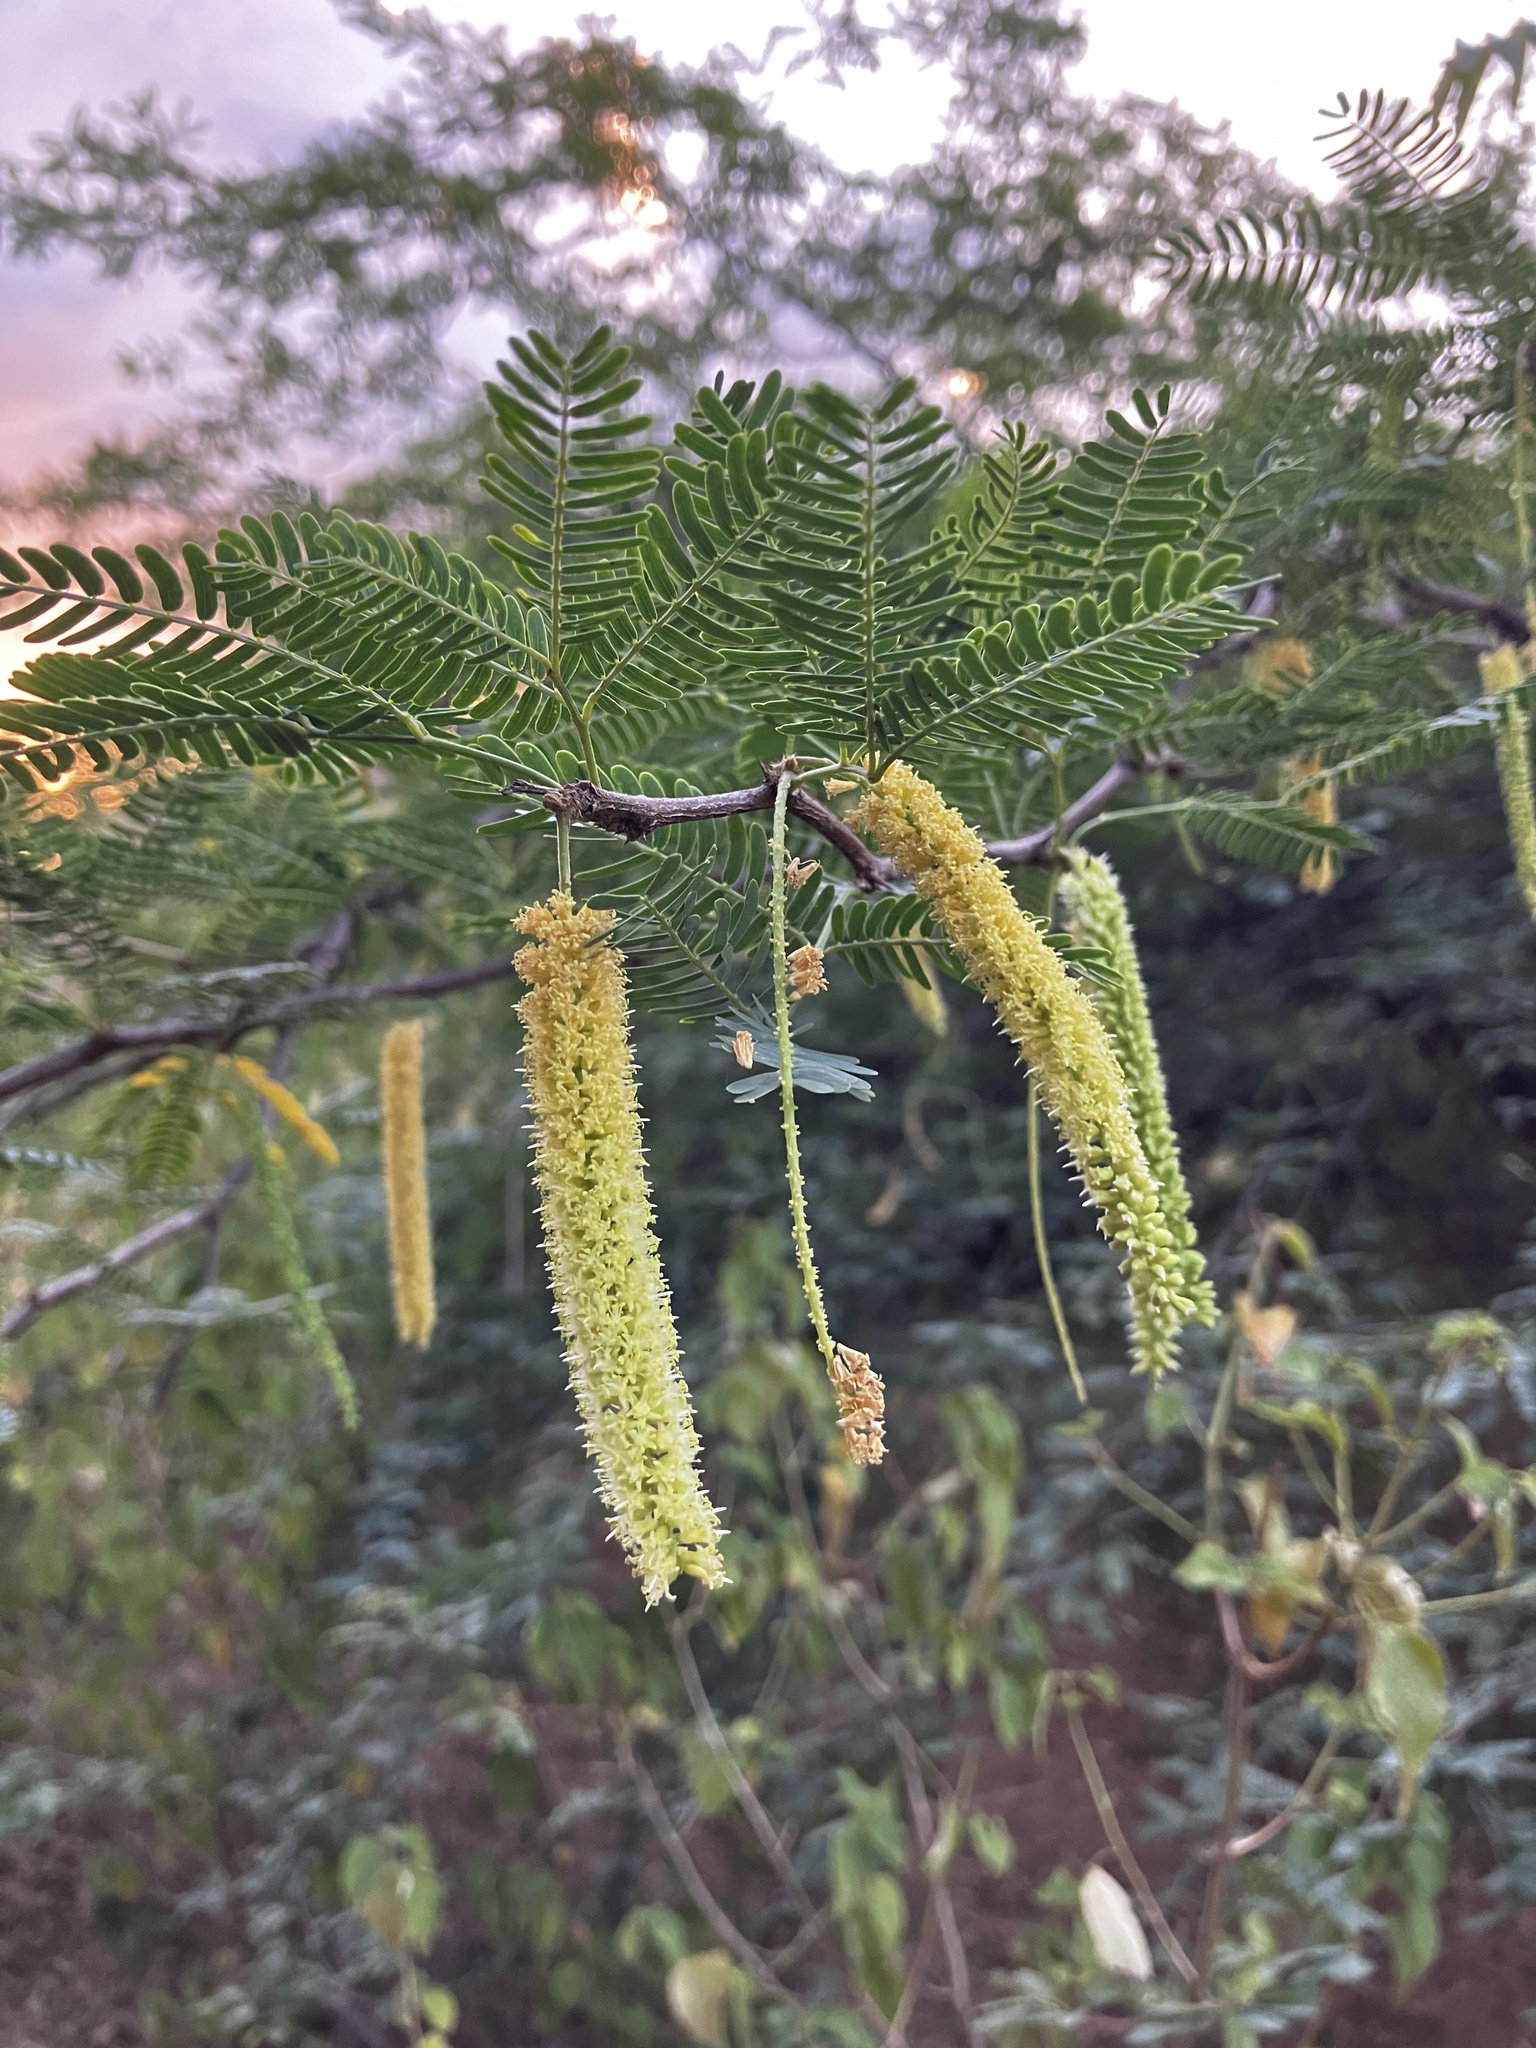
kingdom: Plantae
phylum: Tracheophyta
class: Magnoliopsida
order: Fabales
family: Fabaceae
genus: Prosopis
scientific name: Prosopis juliflora
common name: Mesquite
